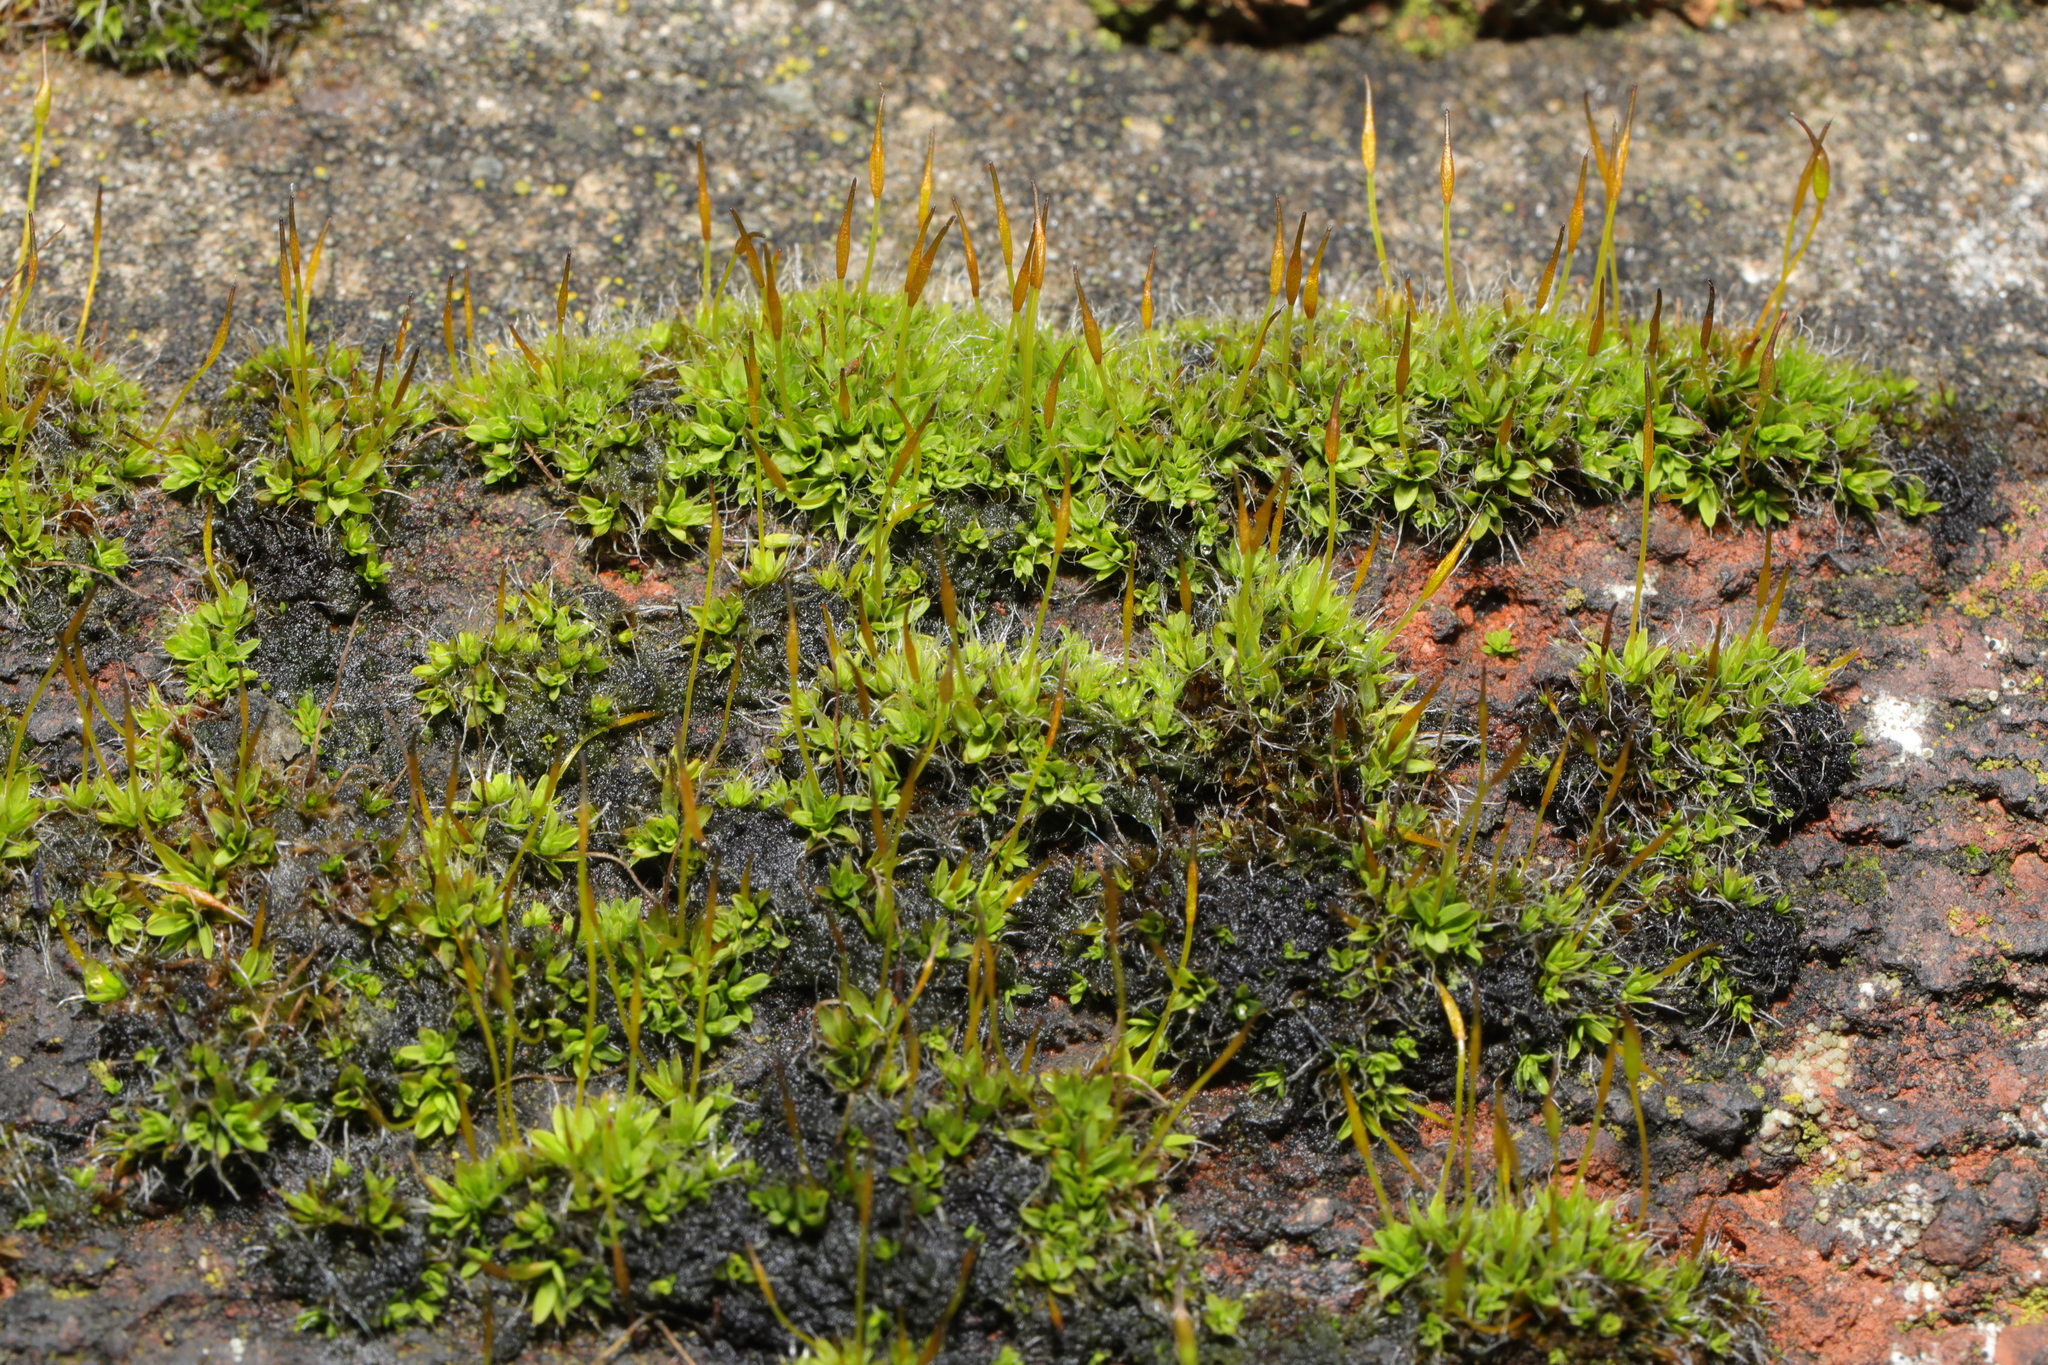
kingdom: Plantae
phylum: Bryophyta
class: Bryopsida
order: Pottiales
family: Pottiaceae
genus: Tortula
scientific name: Tortula muralis
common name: Wall screw-moss
